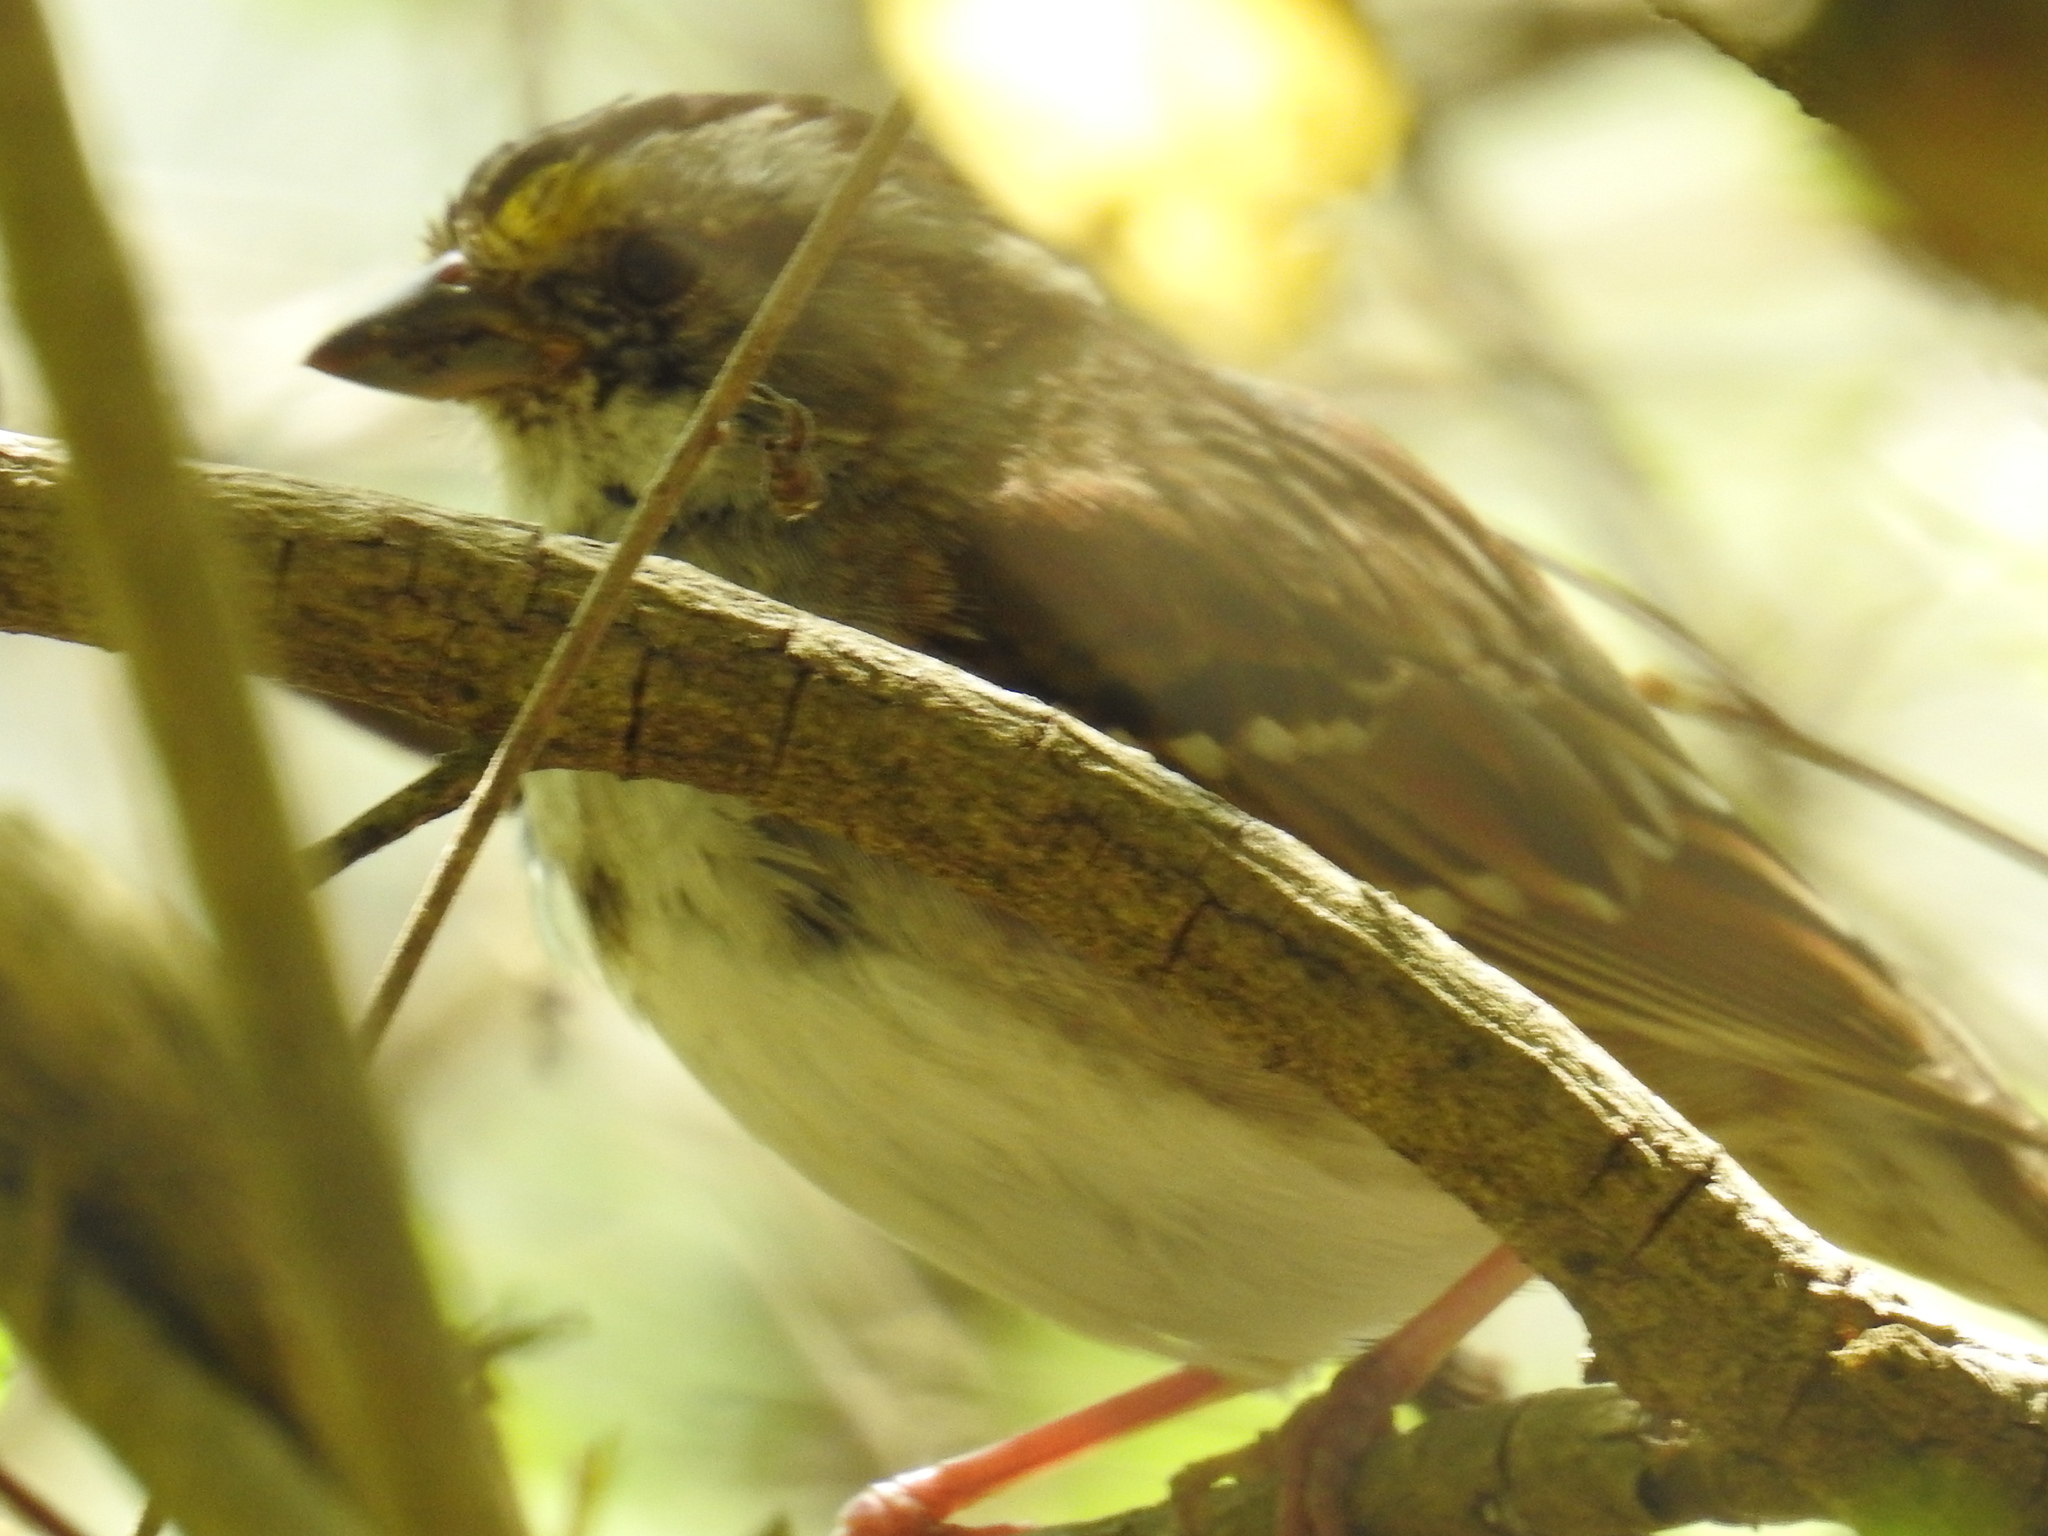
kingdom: Animalia
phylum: Chordata
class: Aves
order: Passeriformes
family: Passerellidae
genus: Zonotrichia
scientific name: Zonotrichia albicollis
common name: White-throated sparrow
